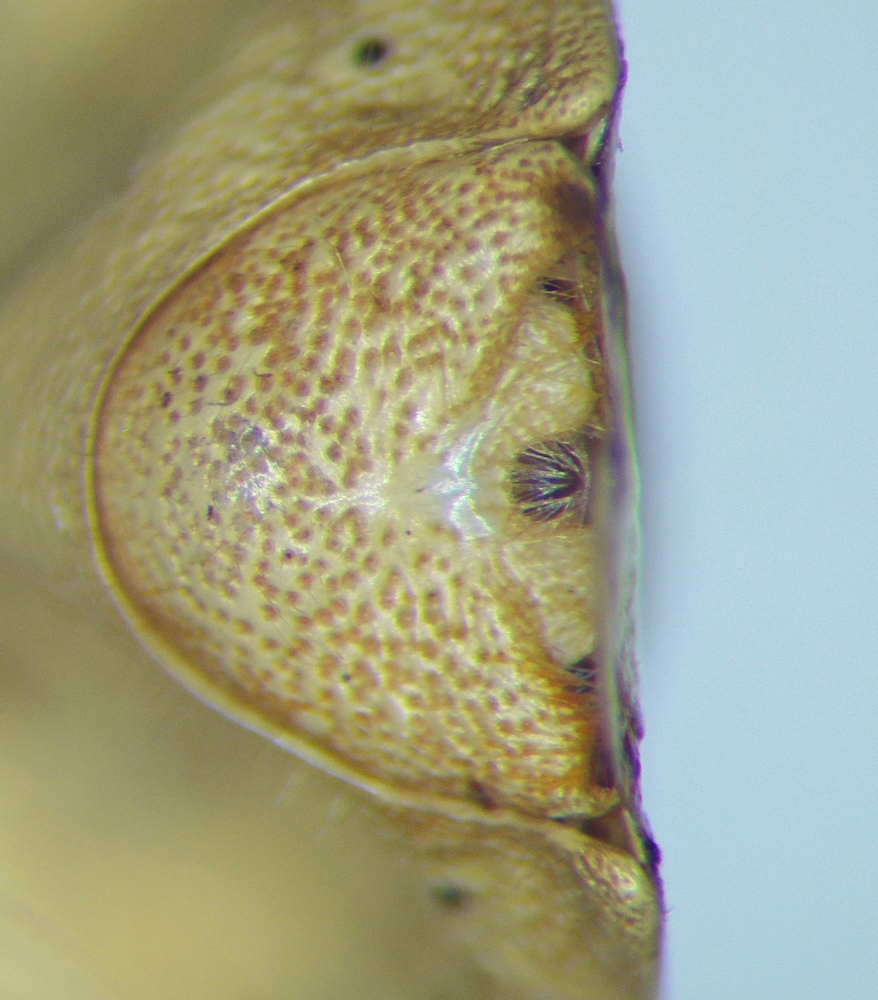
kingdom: Animalia
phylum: Arthropoda
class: Insecta
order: Hemiptera
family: Pentatomidae
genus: Aelia
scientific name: Aelia rostrata
